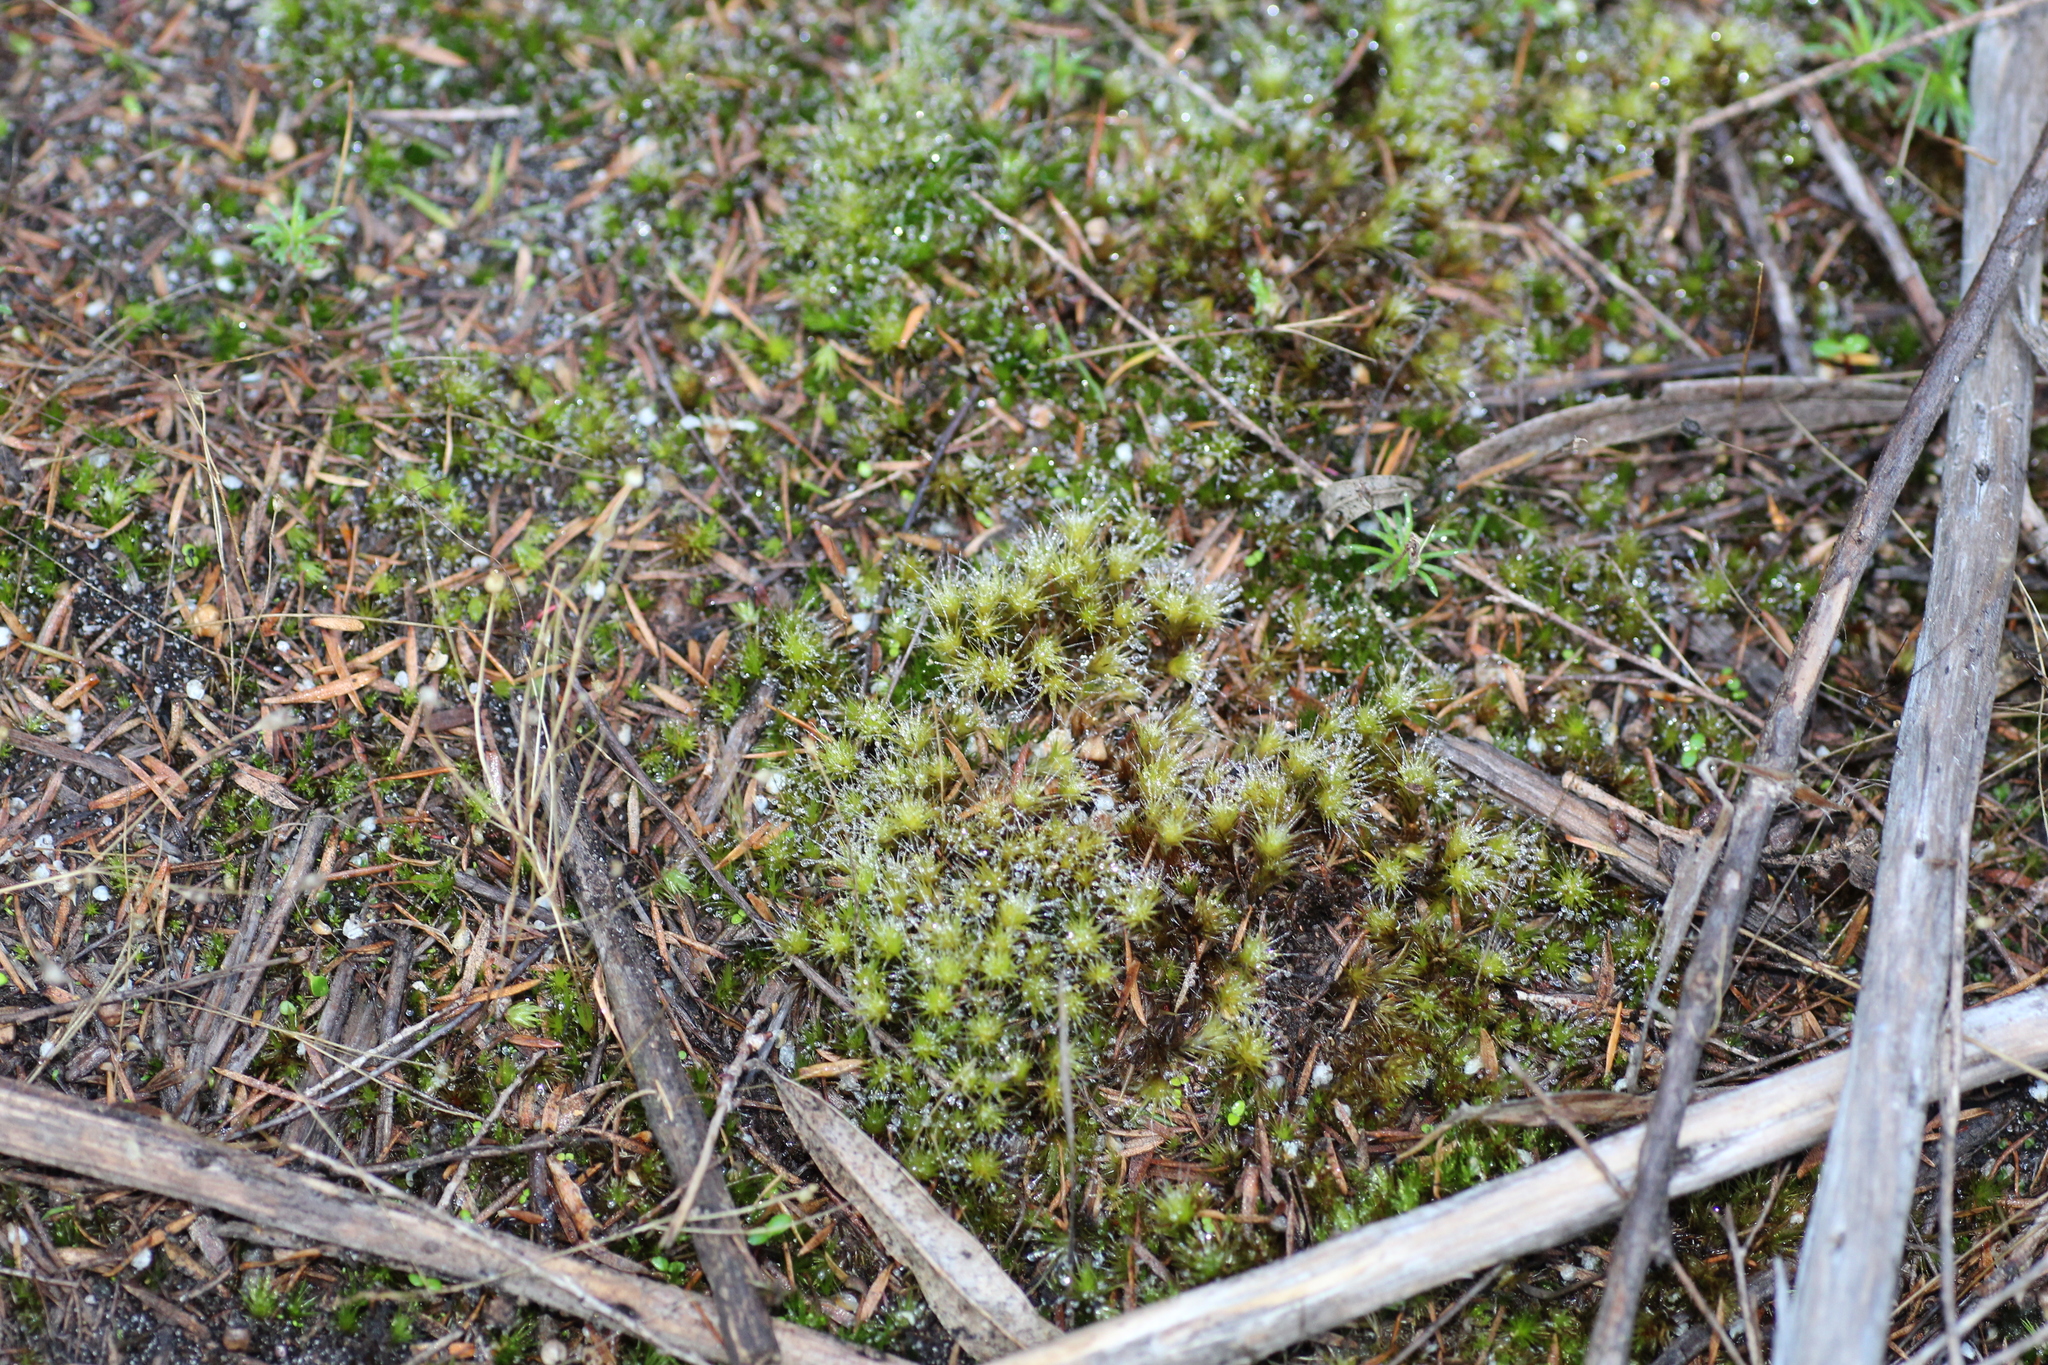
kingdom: Plantae
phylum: Bryophyta
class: Bryopsida
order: Dicranales
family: Leucobryaceae
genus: Campylopus
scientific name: Campylopus bicolor
